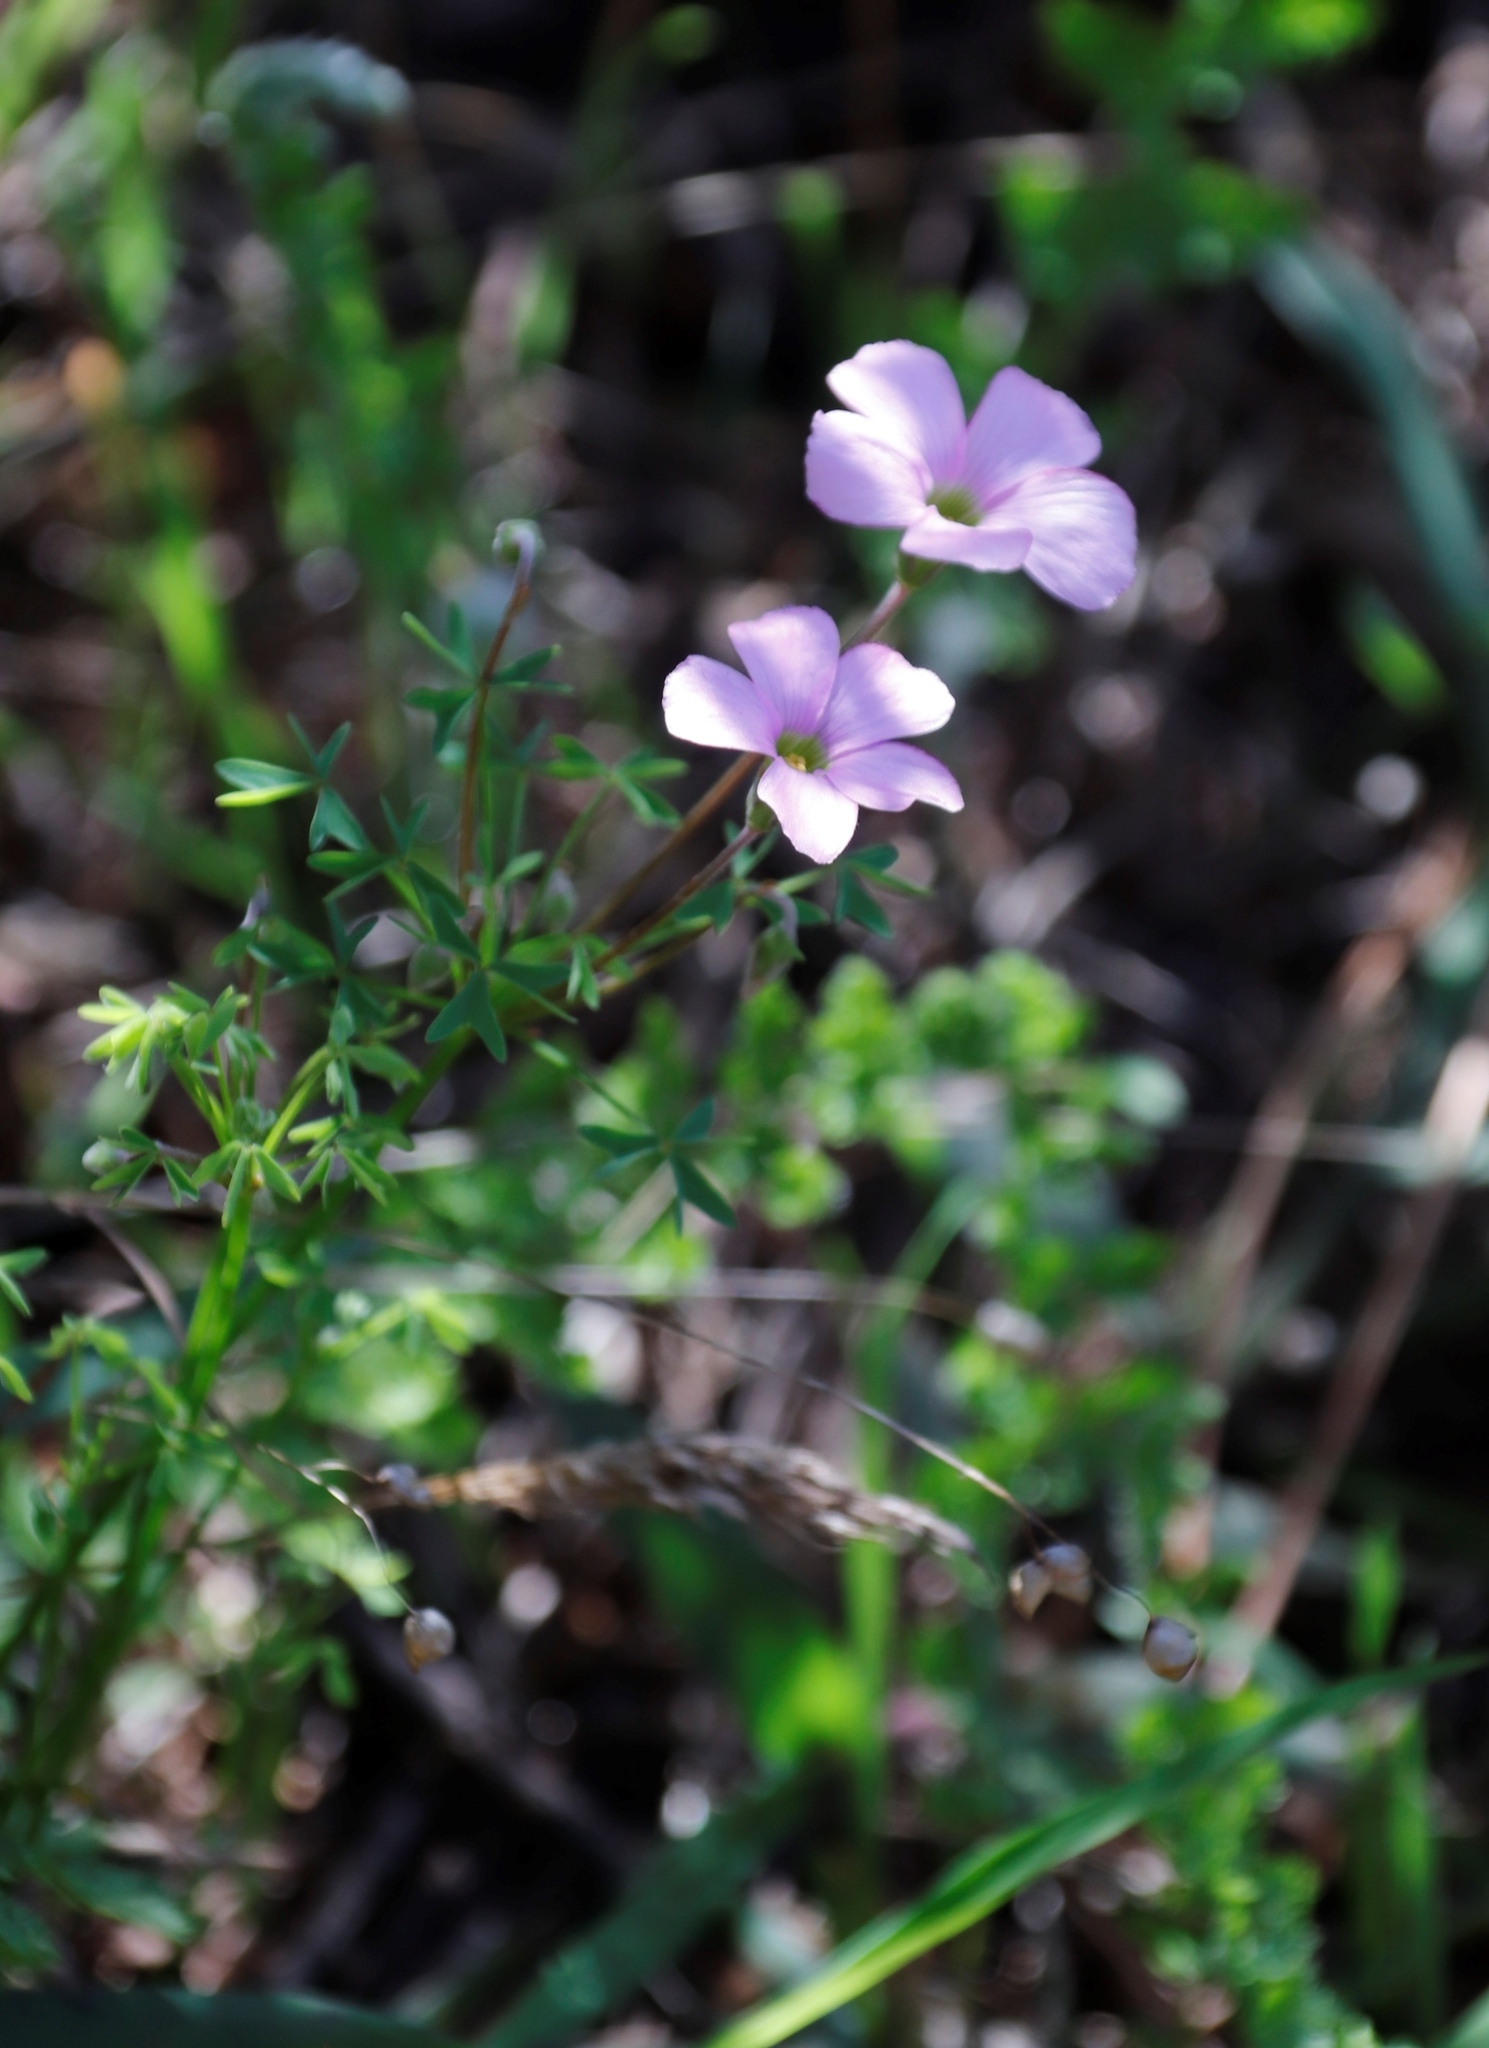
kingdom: Plantae
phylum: Tracheophyta
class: Magnoliopsida
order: Oxalidales
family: Oxalidaceae
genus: Oxalis
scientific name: Oxalis bifida
